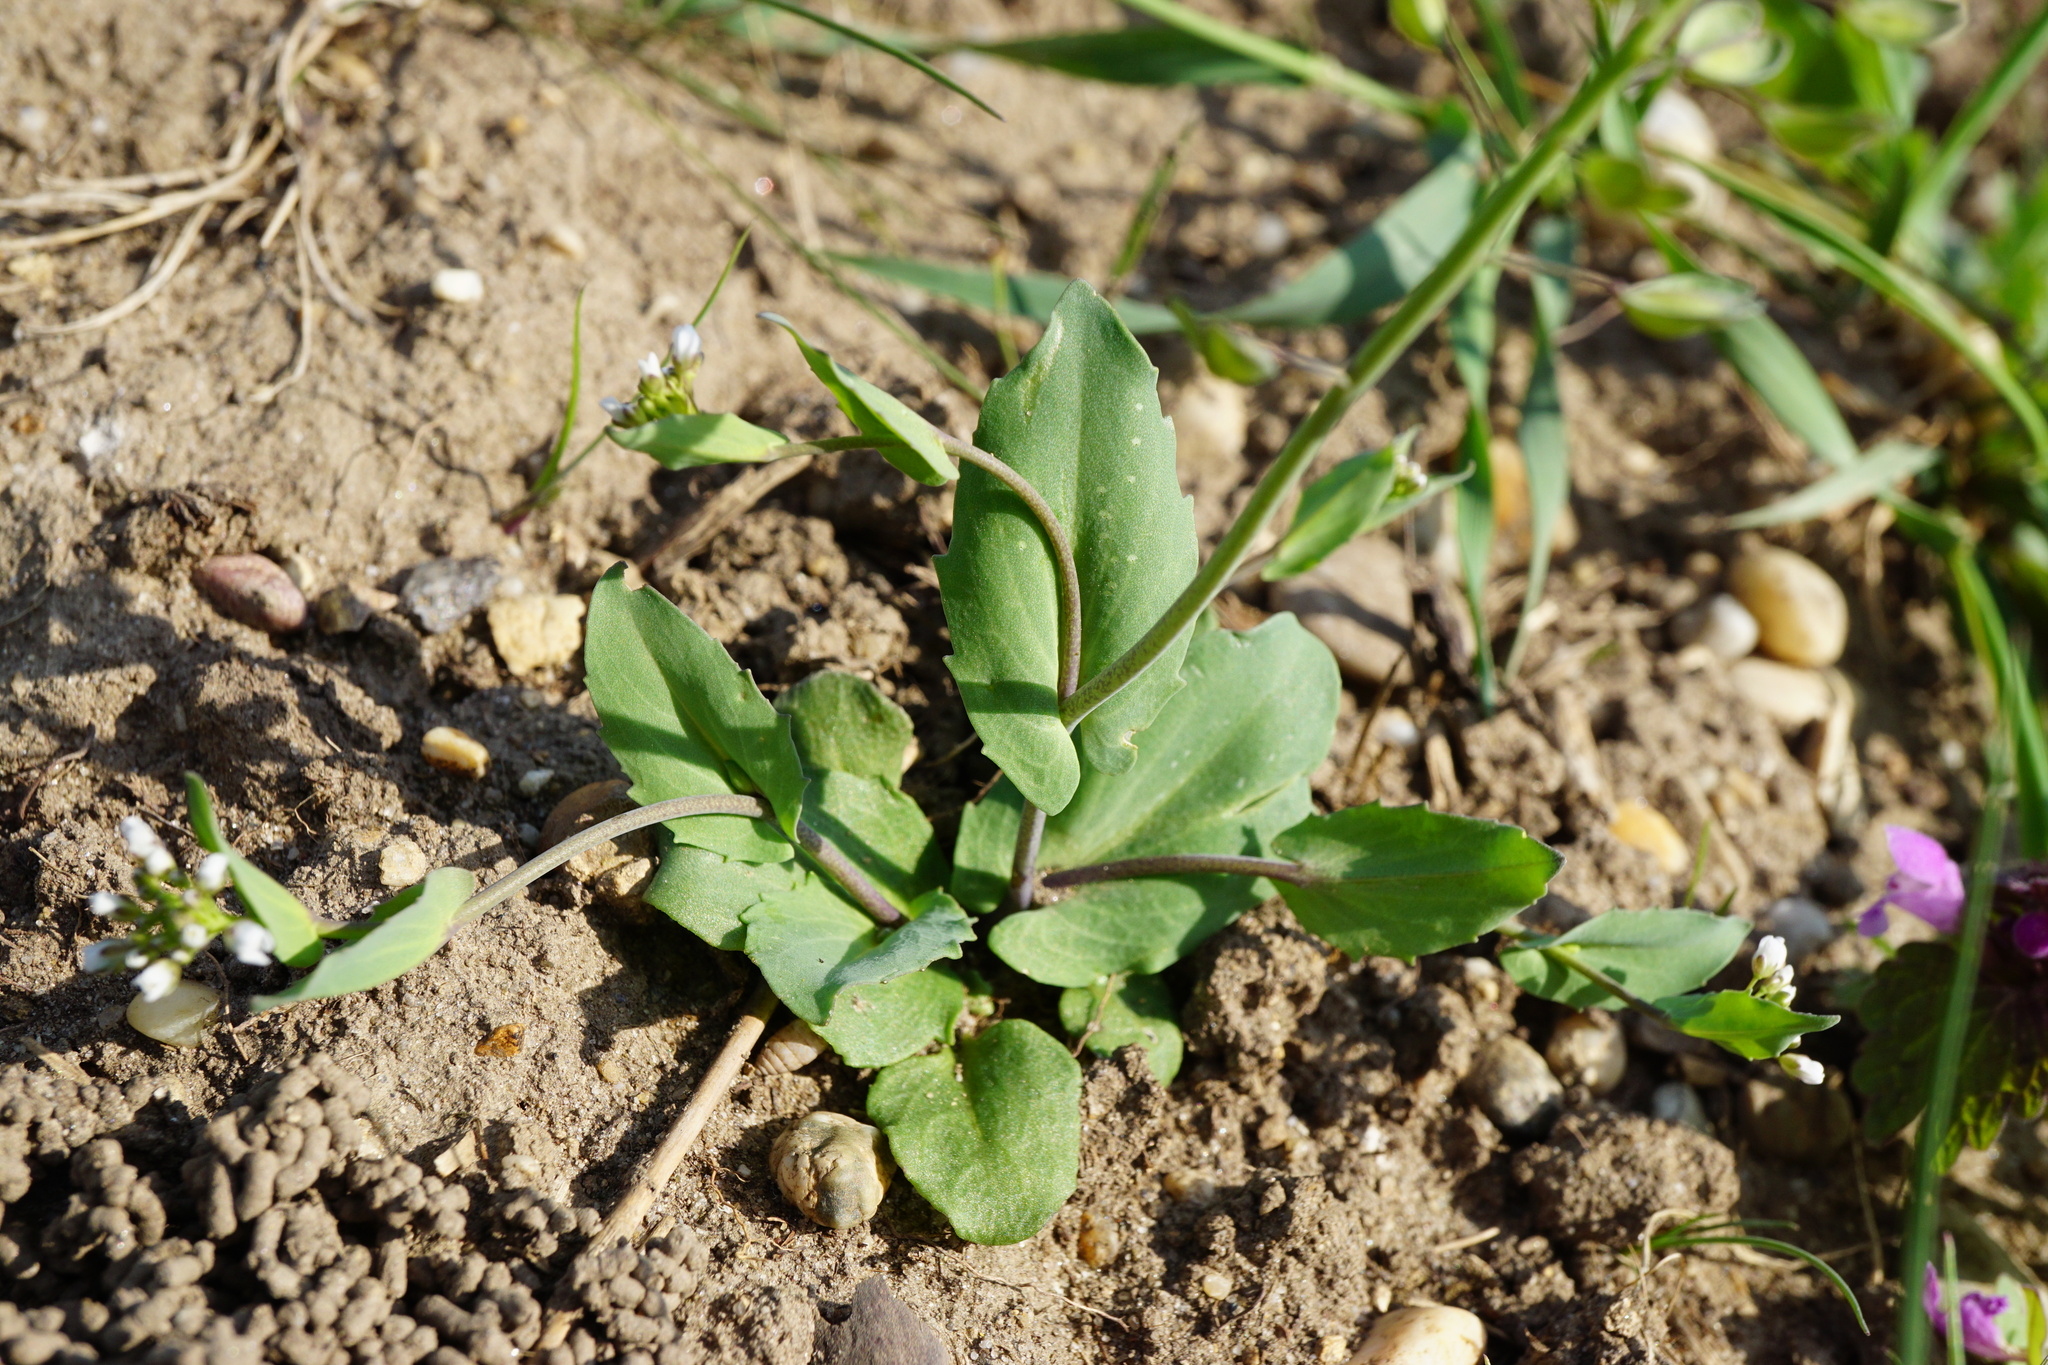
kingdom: Plantae
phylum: Tracheophyta
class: Magnoliopsida
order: Brassicales
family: Brassicaceae
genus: Noccaea
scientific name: Noccaea perfoliata
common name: Perfoliate pennycress
